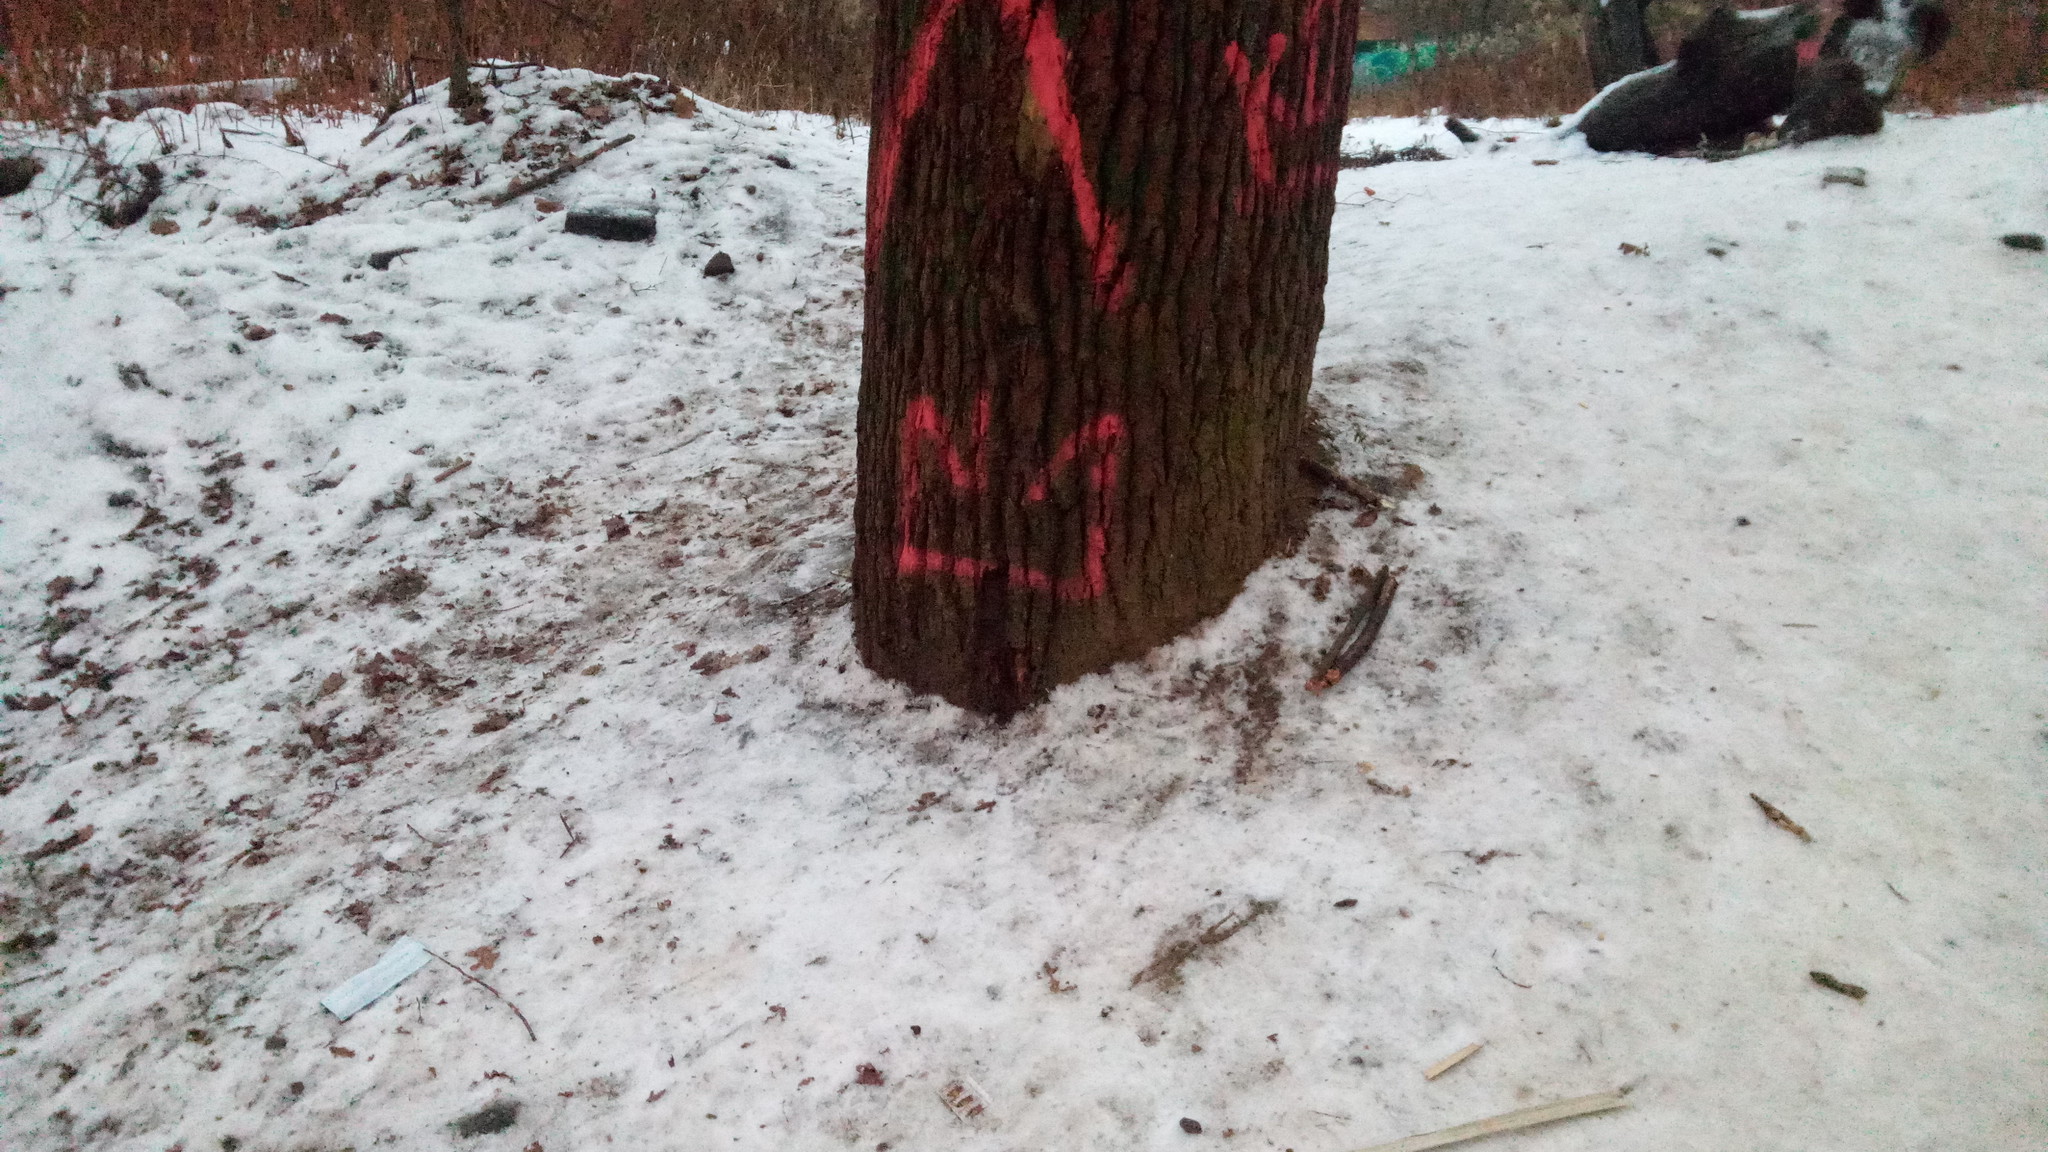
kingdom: Plantae
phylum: Tracheophyta
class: Magnoliopsida
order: Fagales
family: Fagaceae
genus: Quercus
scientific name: Quercus robur
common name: Pedunculate oak
